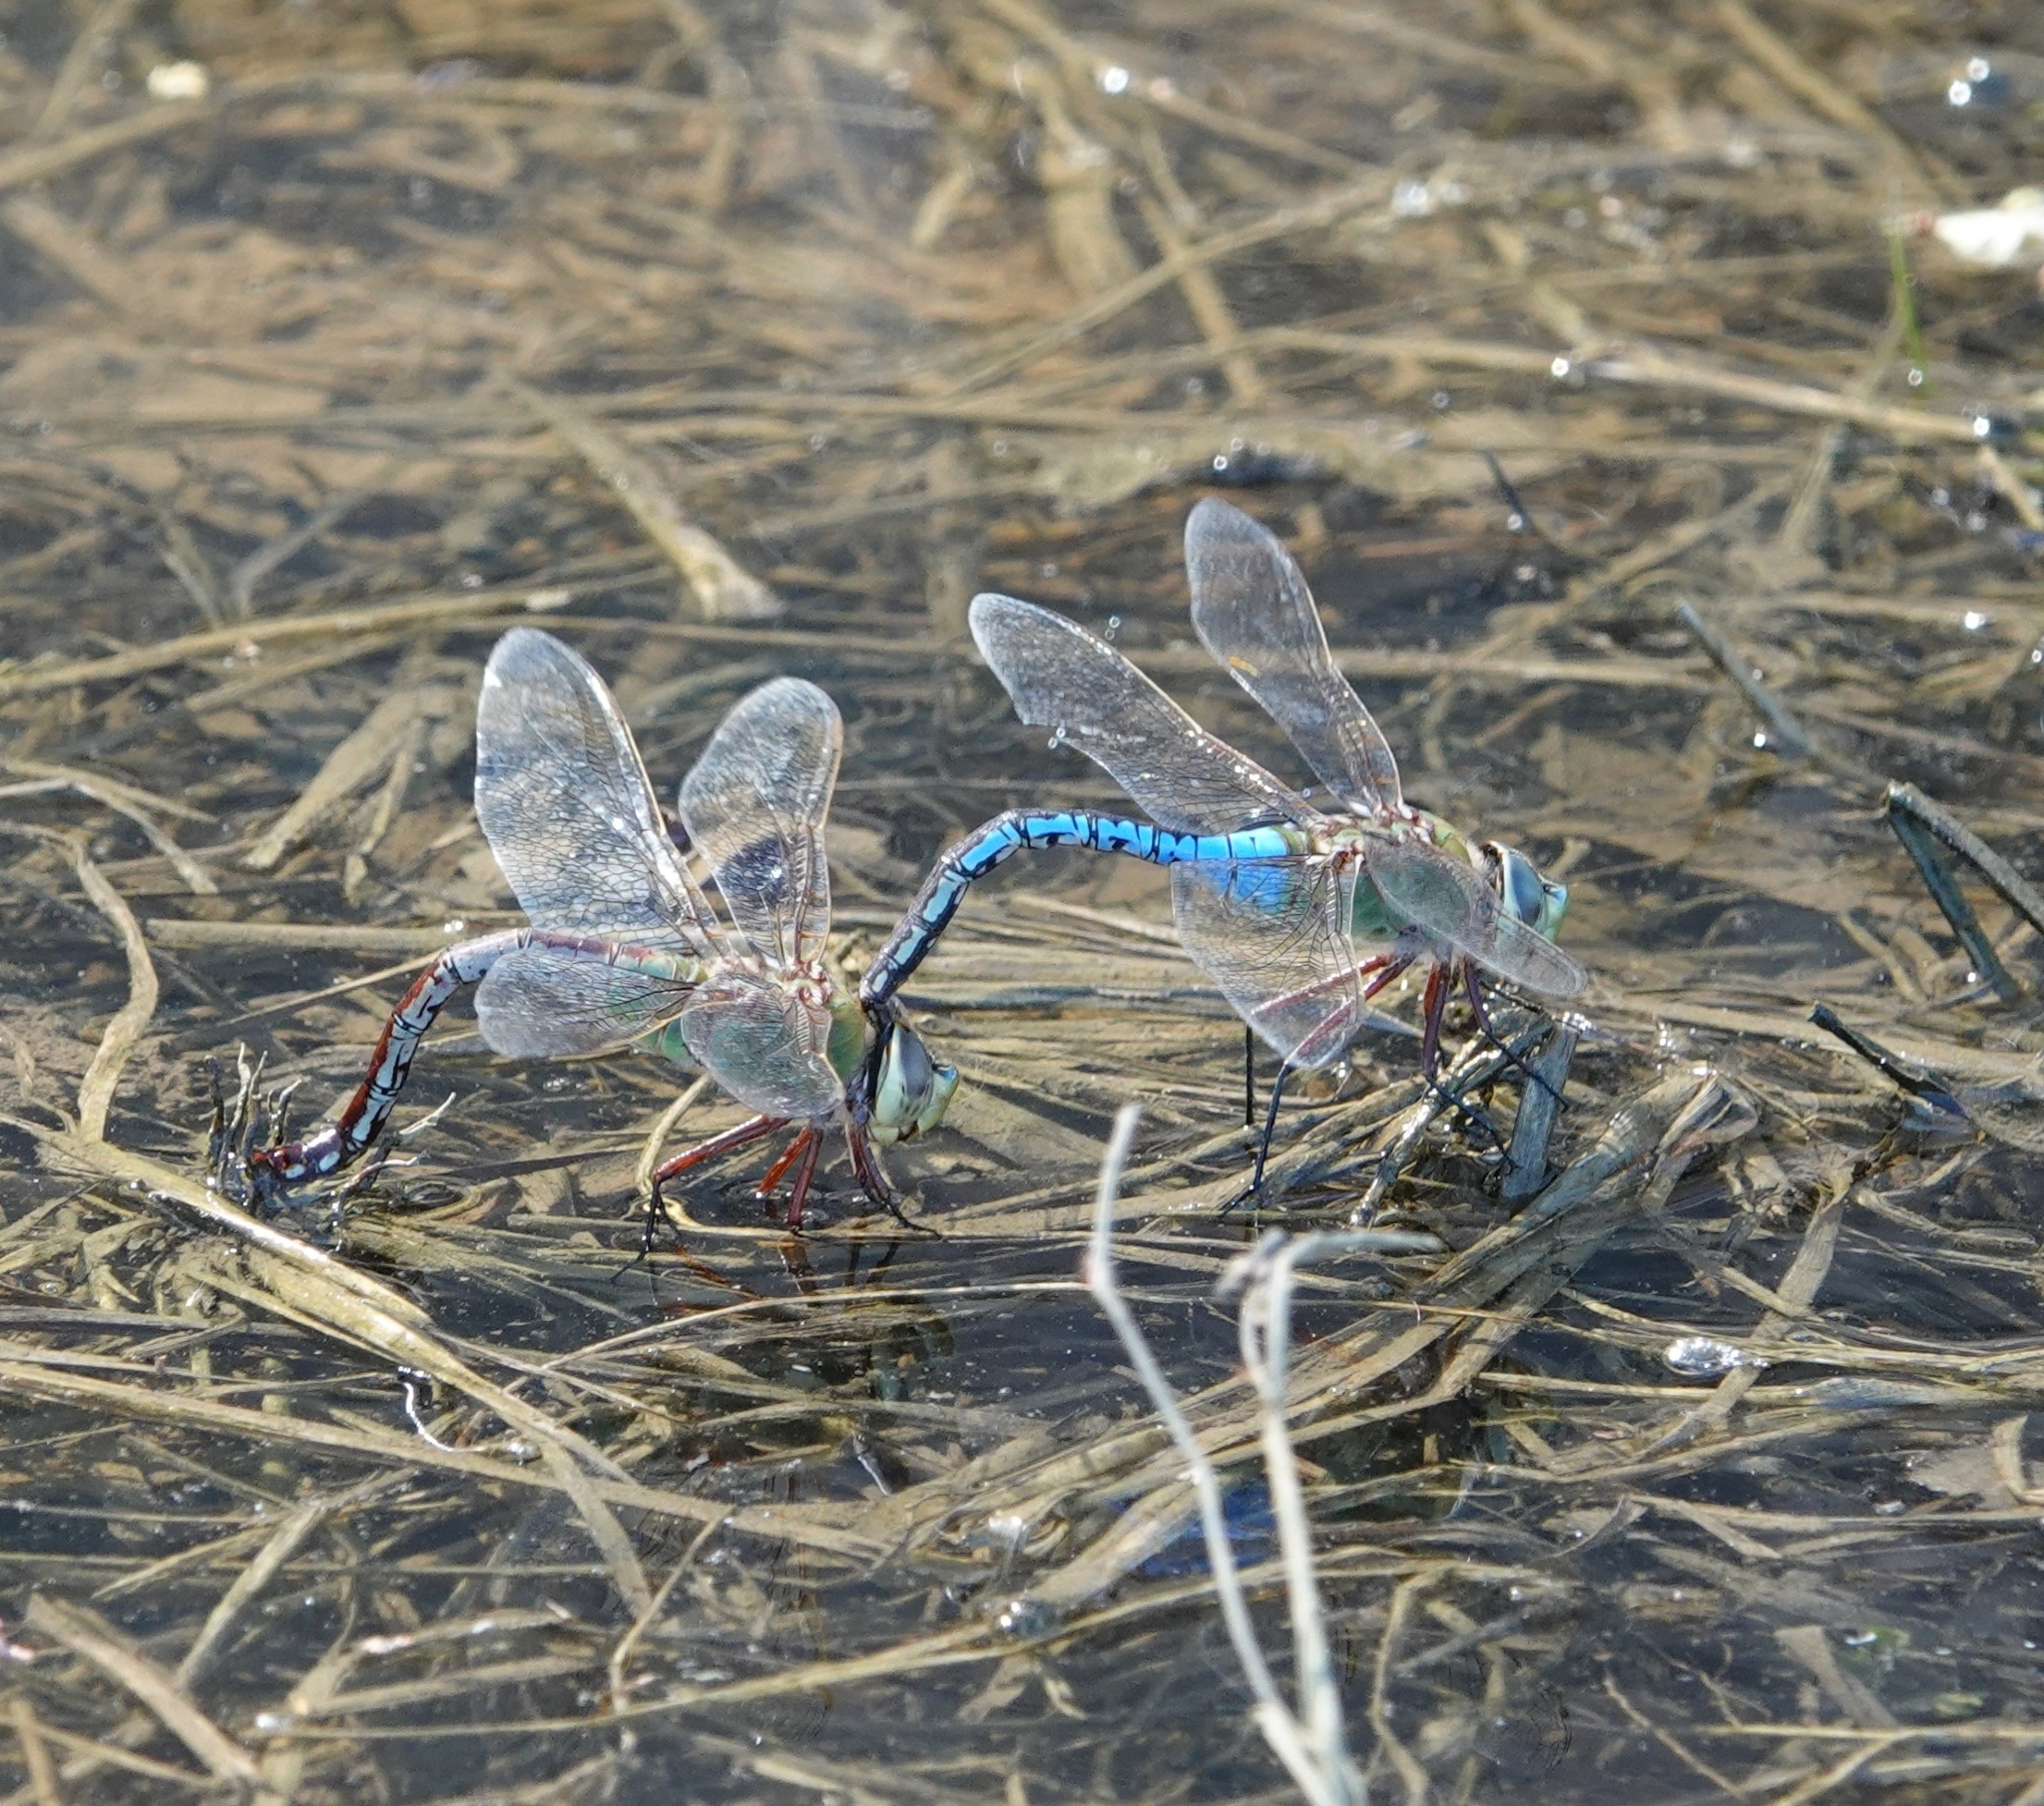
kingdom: Animalia
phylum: Arthropoda
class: Insecta
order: Odonata
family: Aeshnidae
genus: Anax
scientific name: Anax junius
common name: Common green darner
